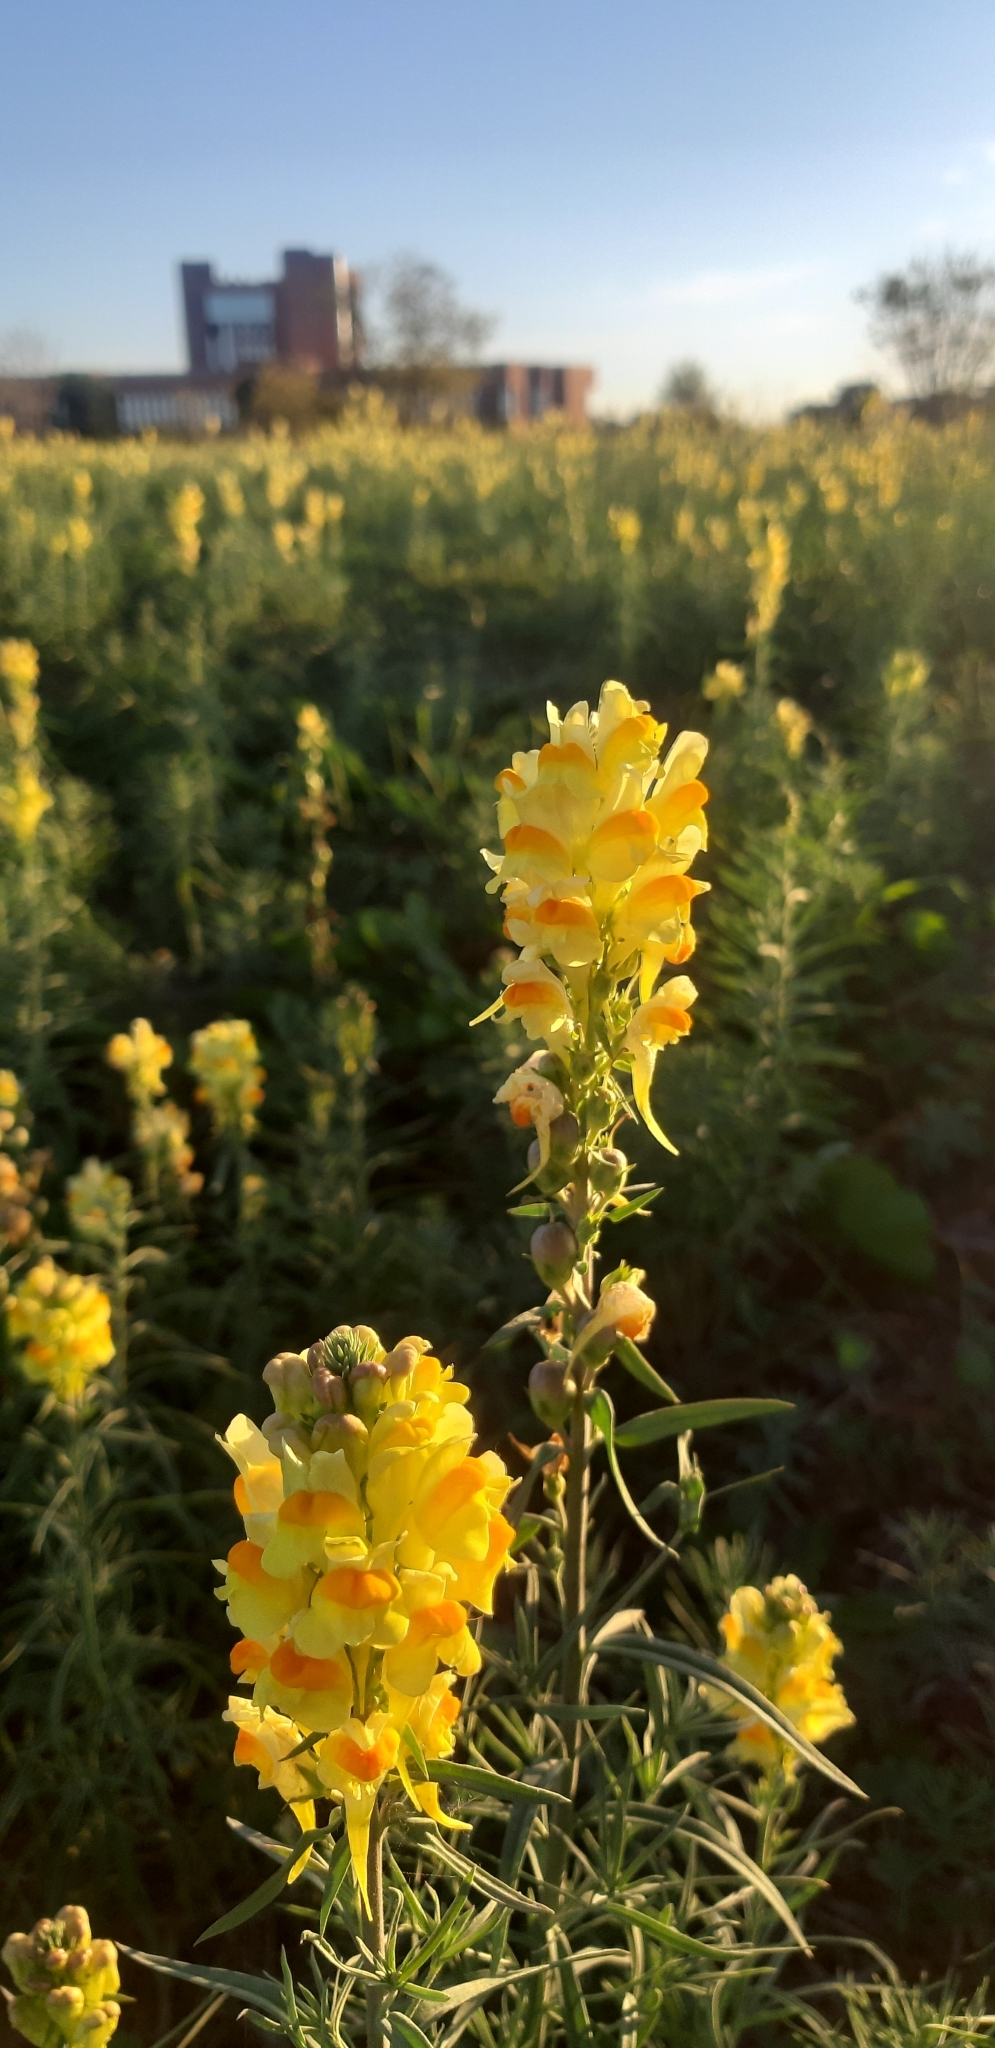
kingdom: Plantae
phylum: Tracheophyta
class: Magnoliopsida
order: Lamiales
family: Plantaginaceae
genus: Linaria
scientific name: Linaria vulgaris
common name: Butter and eggs
